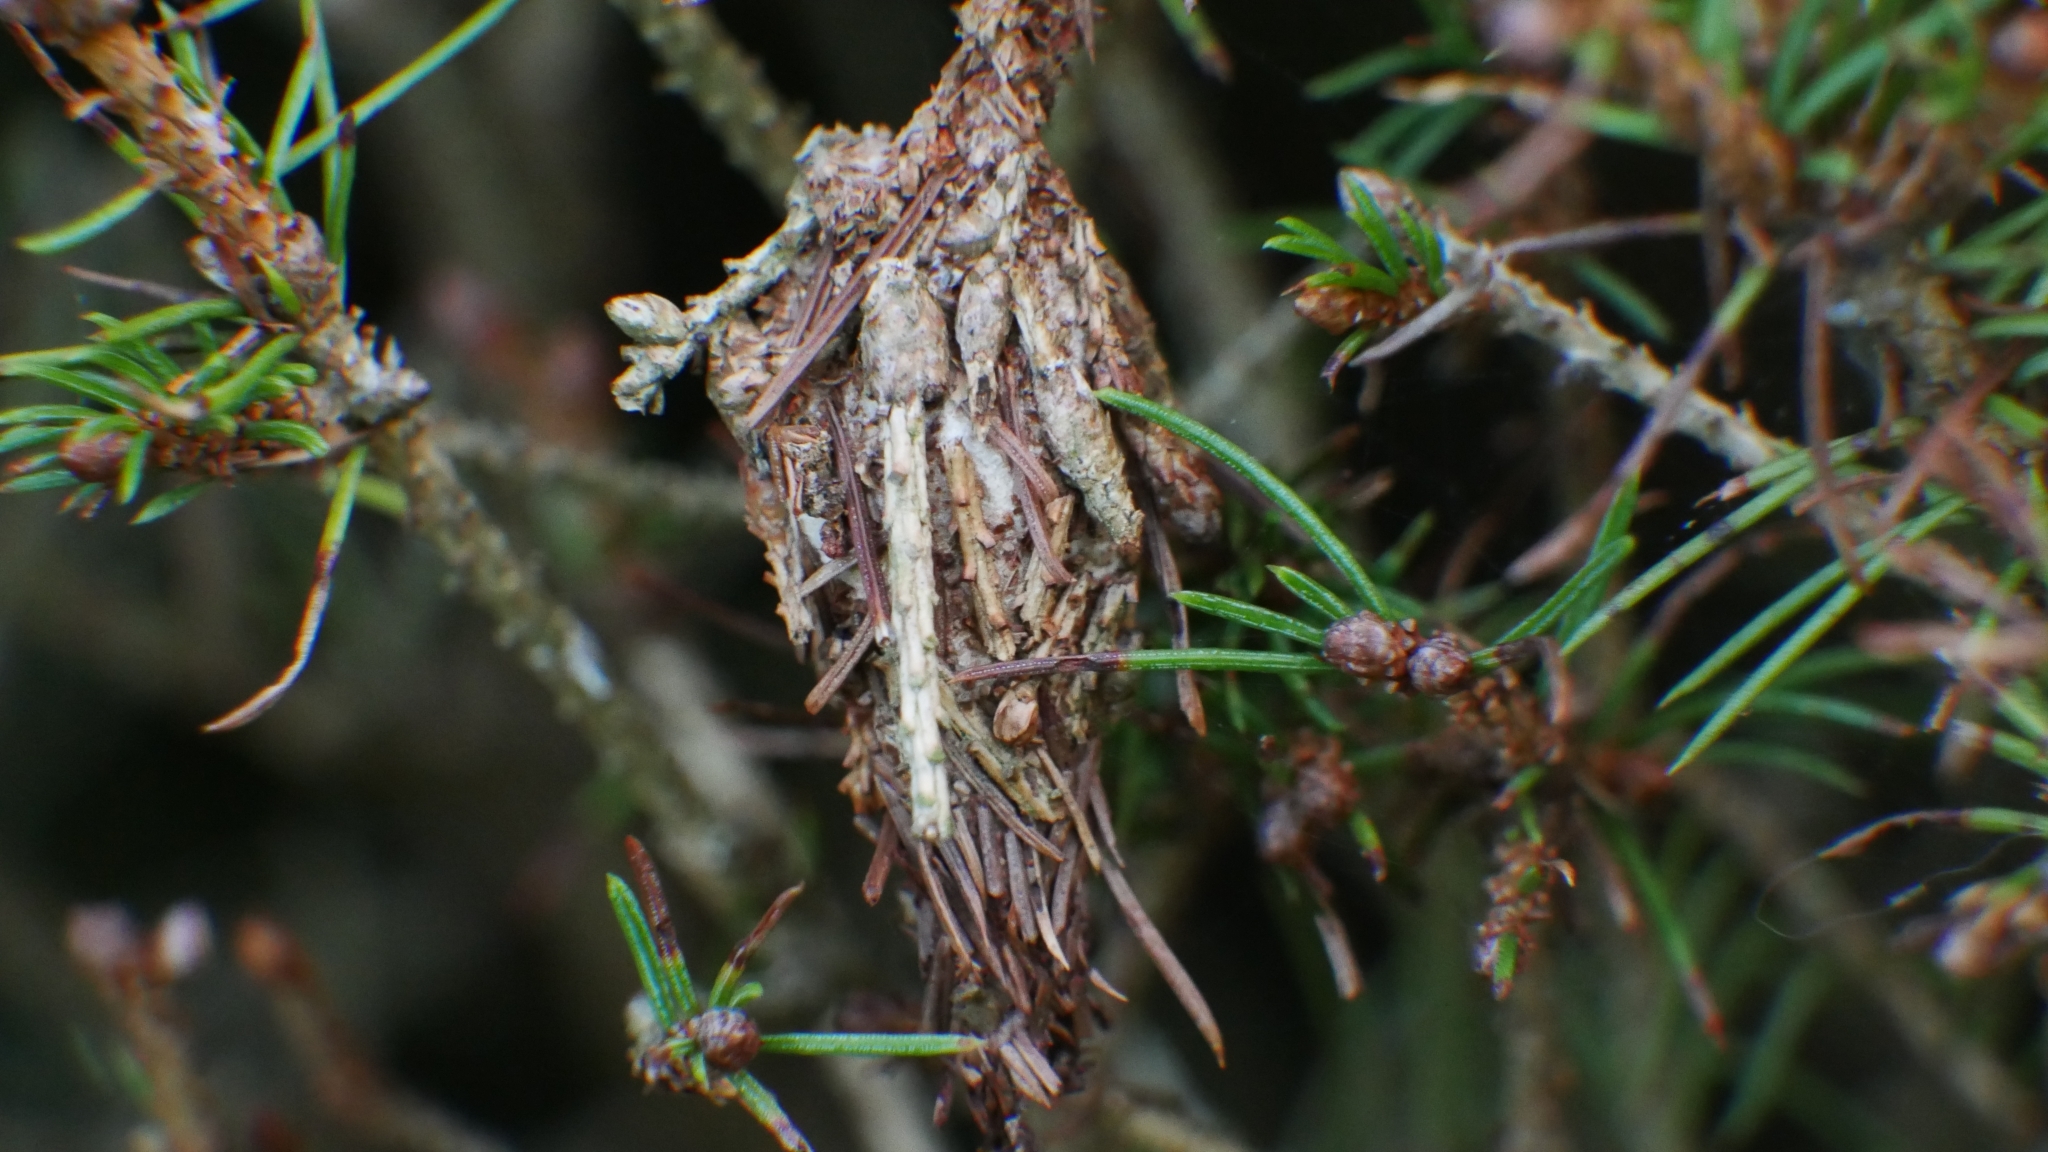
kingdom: Animalia
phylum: Arthropoda
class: Insecta
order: Lepidoptera
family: Psychidae
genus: Thyridopteryx
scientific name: Thyridopteryx ephemeraeformis
